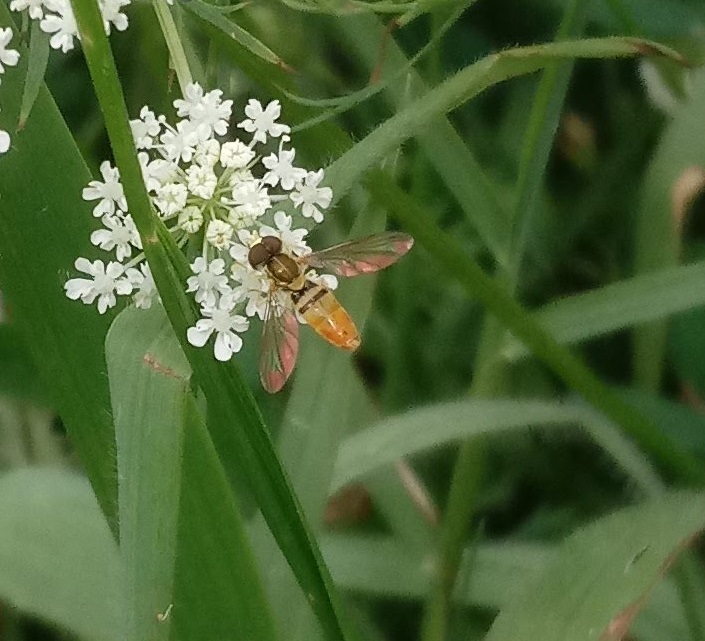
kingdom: Animalia
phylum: Arthropoda
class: Insecta
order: Diptera
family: Syrphidae
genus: Toxomerus
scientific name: Toxomerus marginatus
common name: Syrphid fly
